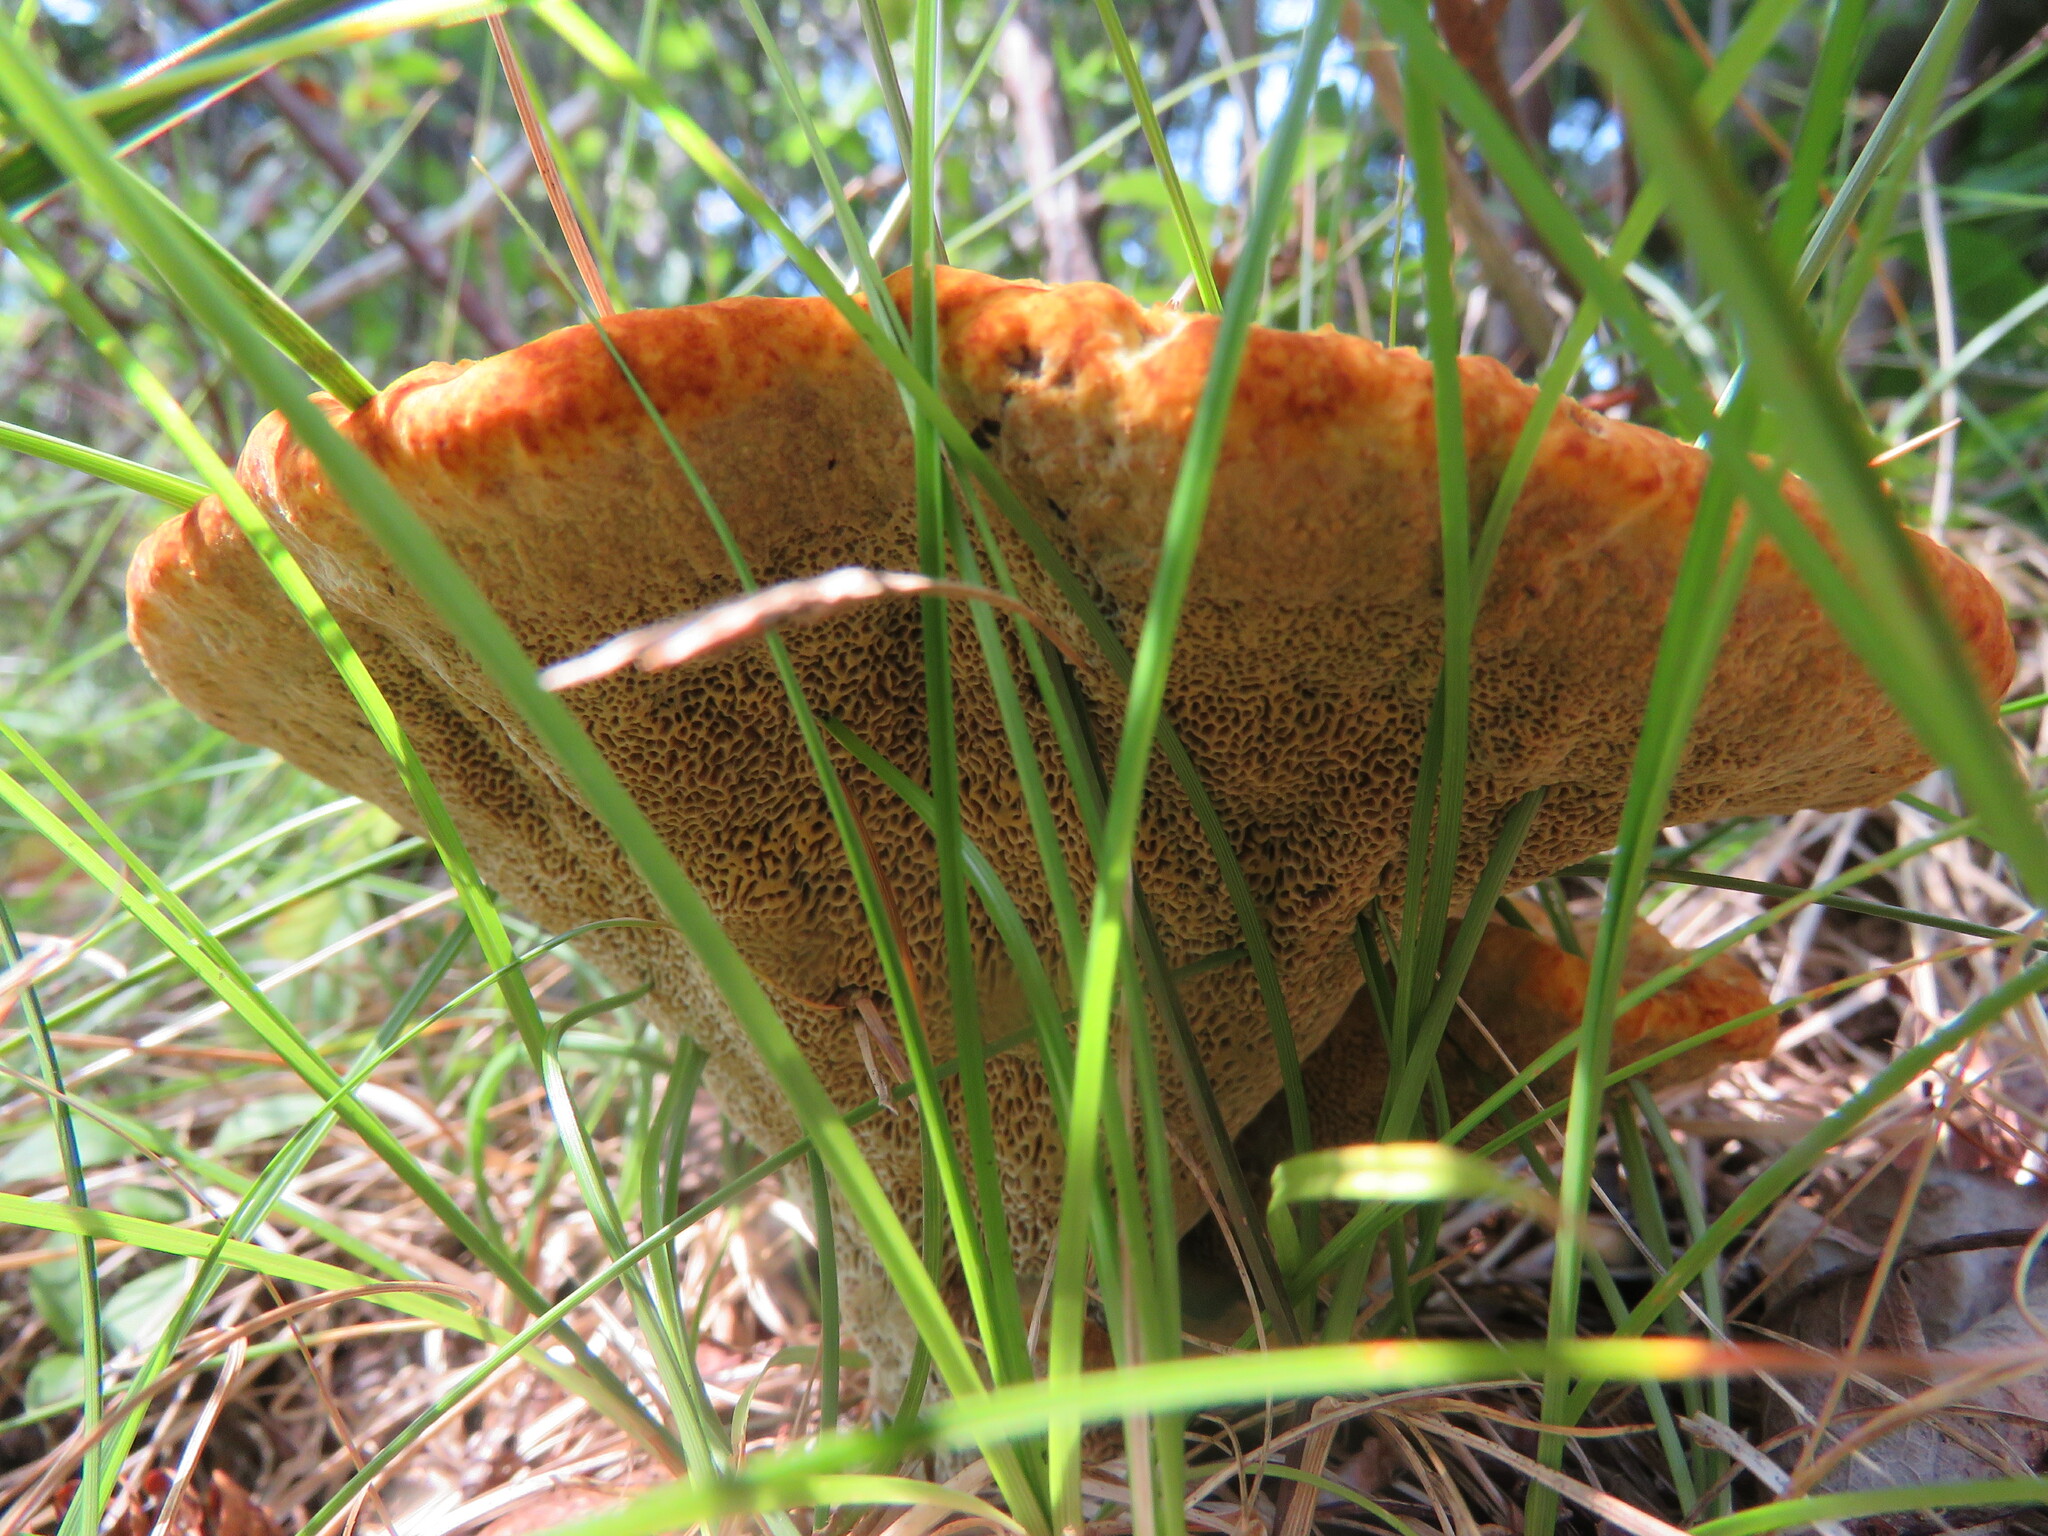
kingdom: Fungi
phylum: Basidiomycota
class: Agaricomycetes
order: Polyporales
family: Laetiporaceae
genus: Phaeolus
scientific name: Phaeolus schweinitzii
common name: Dyer's mazegill
